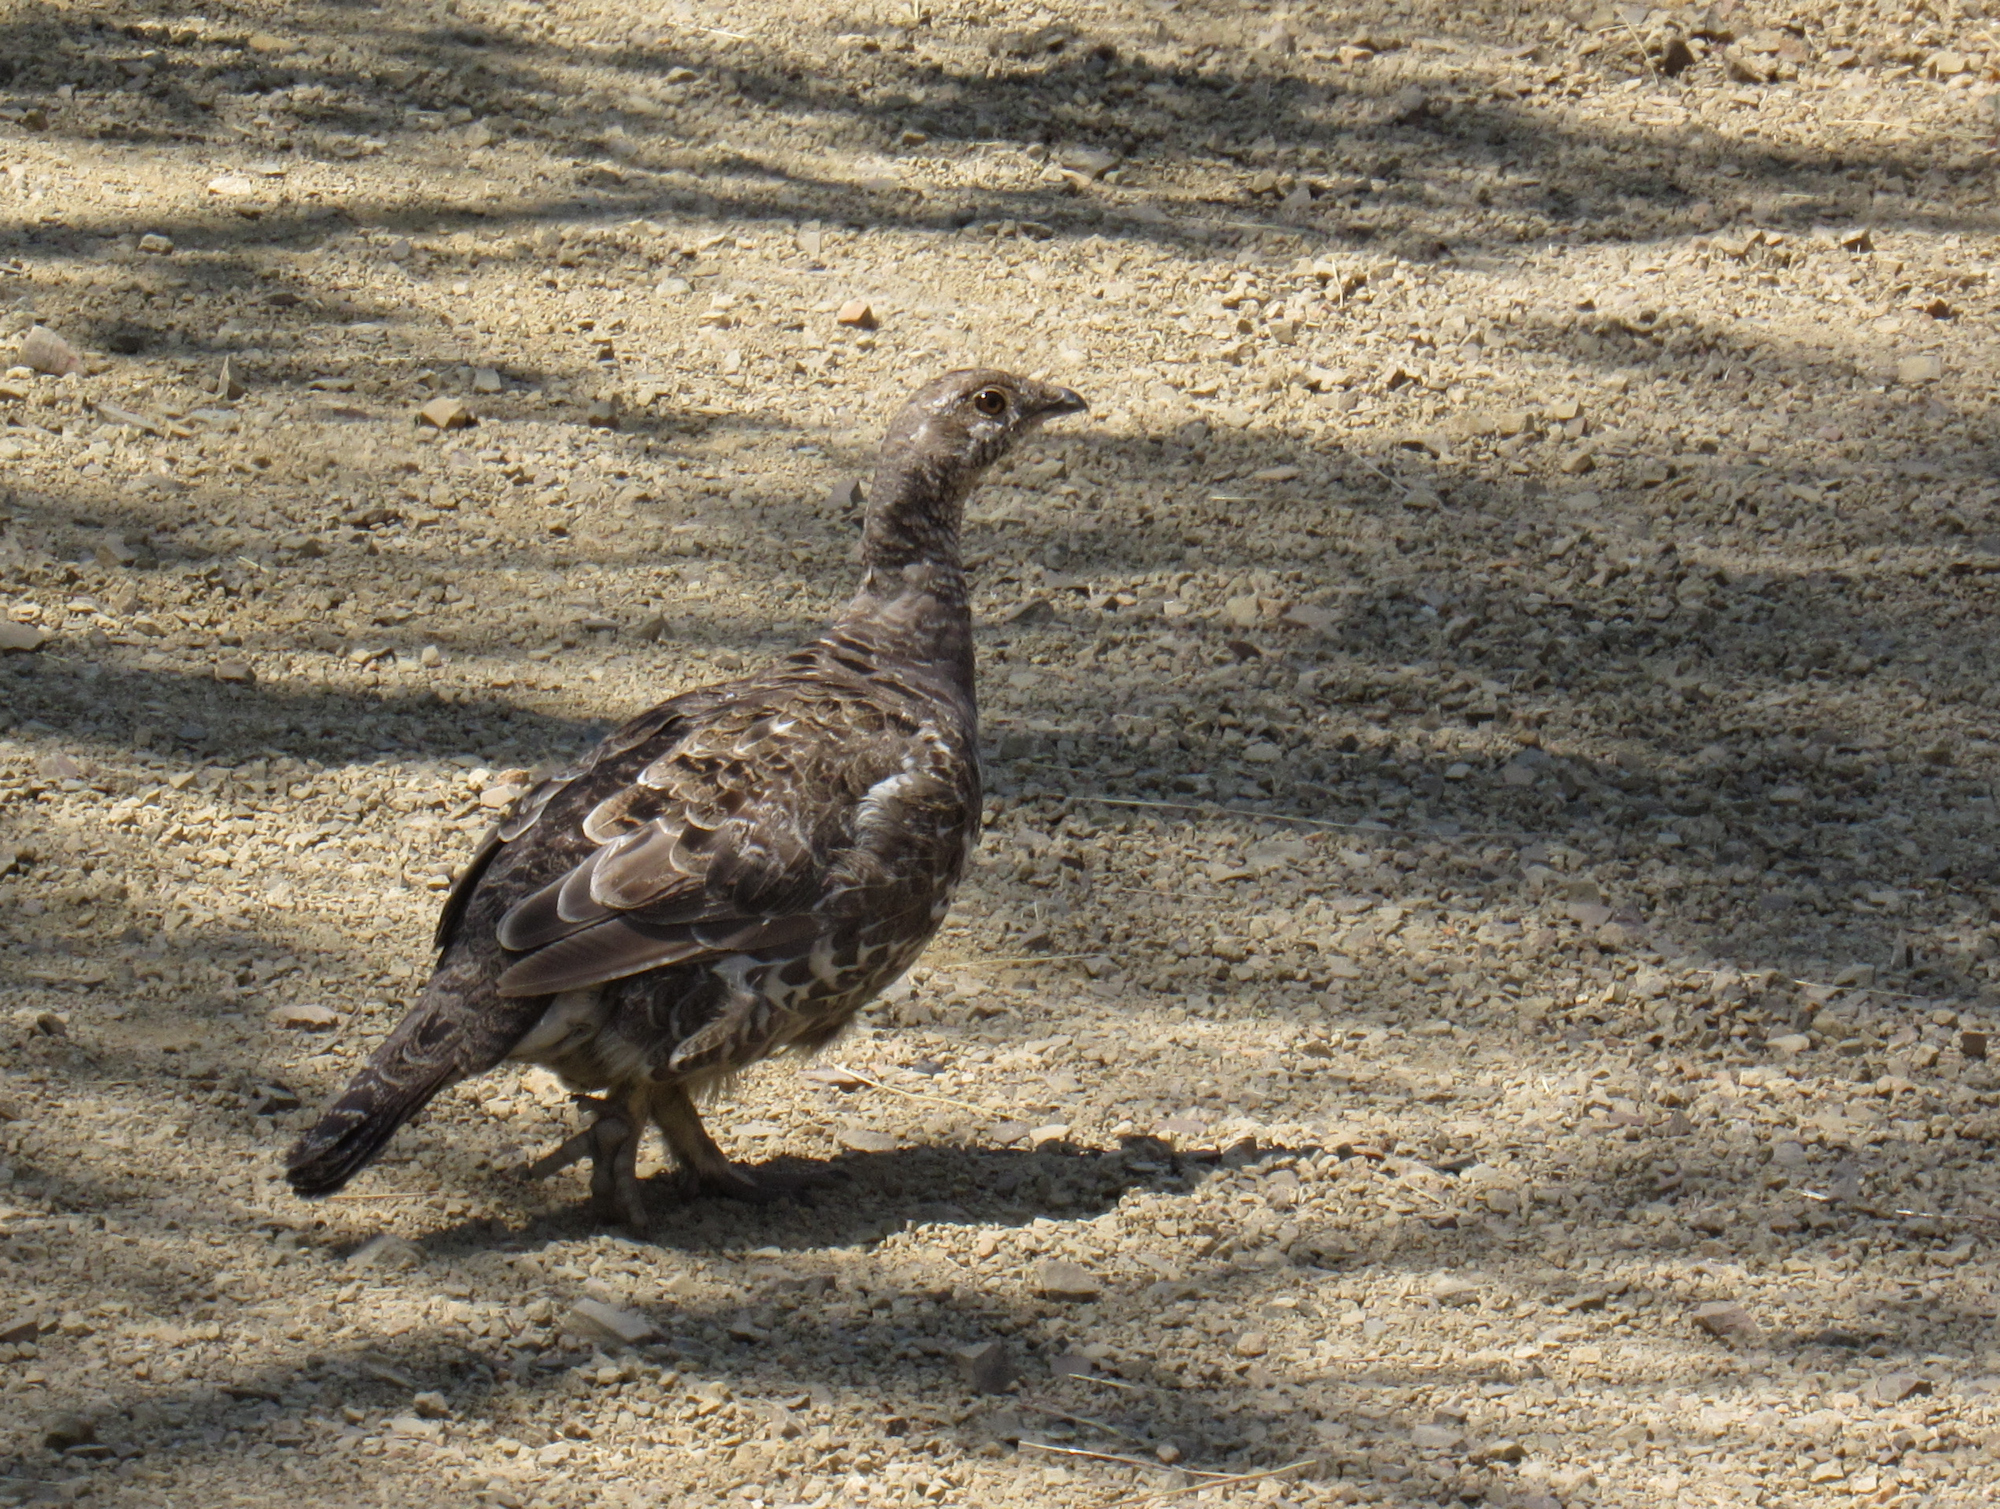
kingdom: Animalia
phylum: Chordata
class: Aves
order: Galliformes
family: Phasianidae
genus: Dendragapus
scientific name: Dendragapus obscurus
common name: Dusky grouse
